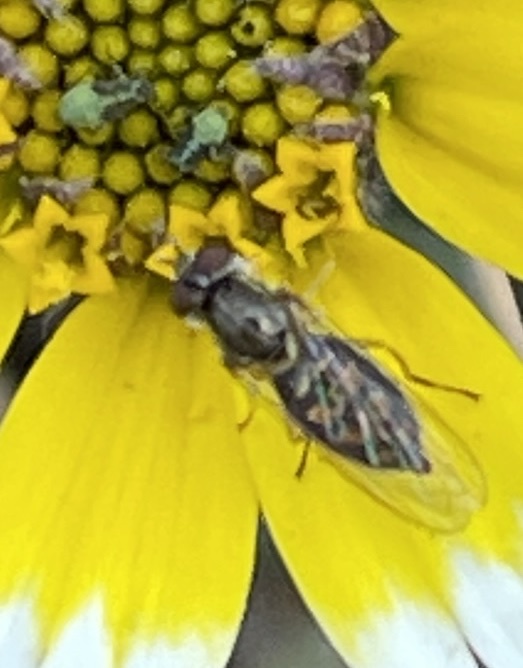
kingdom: Animalia
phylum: Arthropoda
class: Insecta
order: Diptera
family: Syrphidae
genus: Toxomerus
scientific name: Toxomerus marginatus
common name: Syrphid fly
